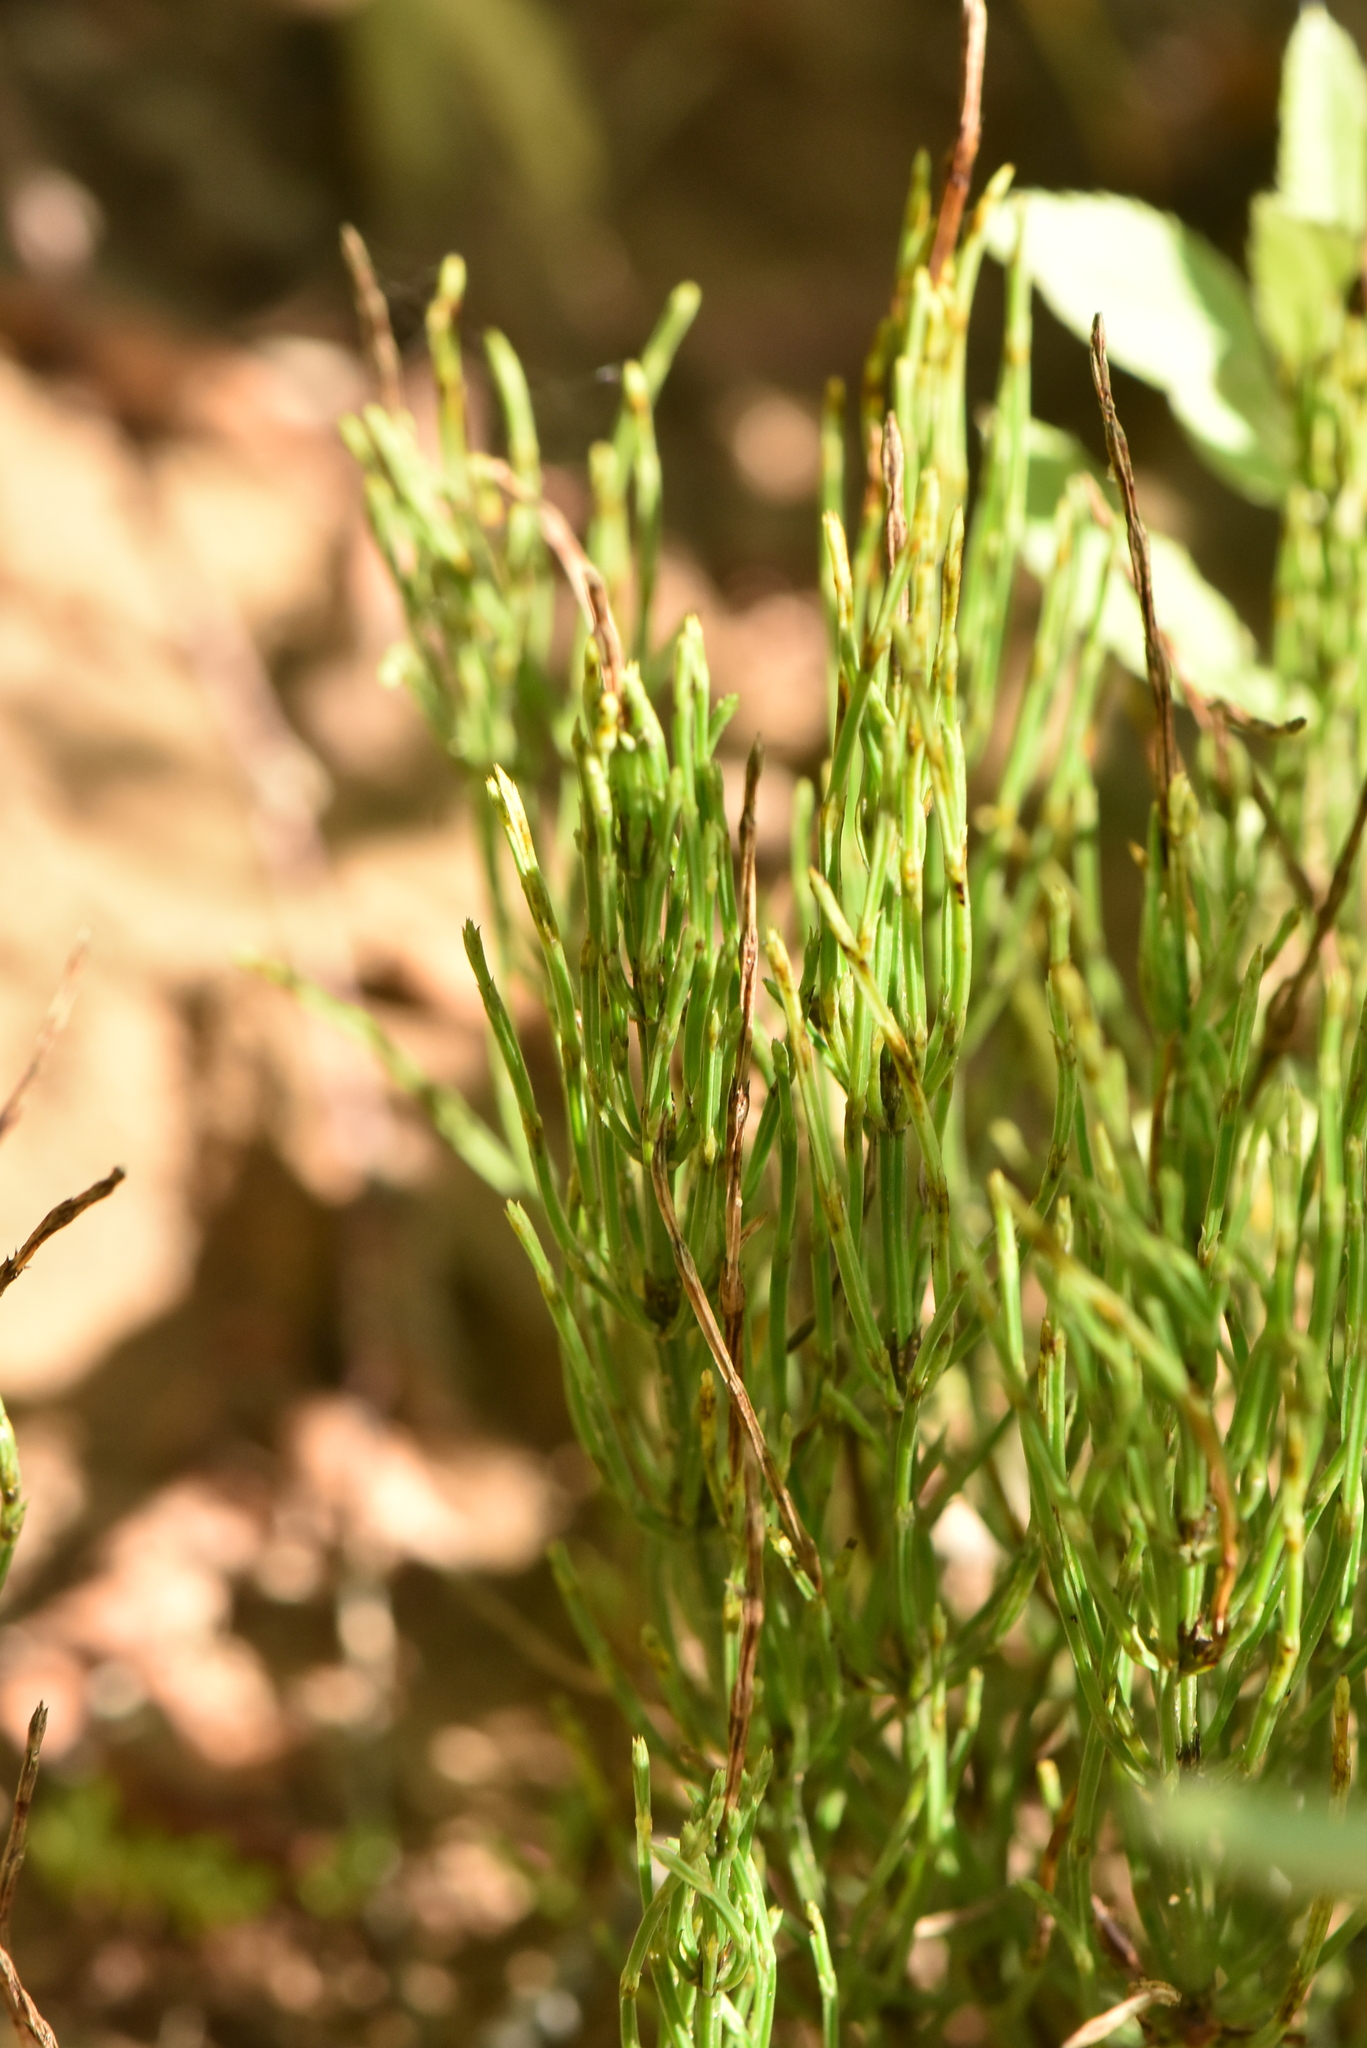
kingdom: Plantae
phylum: Tracheophyta
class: Polypodiopsida
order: Equisetales
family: Equisetaceae
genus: Equisetum
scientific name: Equisetum arvense
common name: Field horsetail
